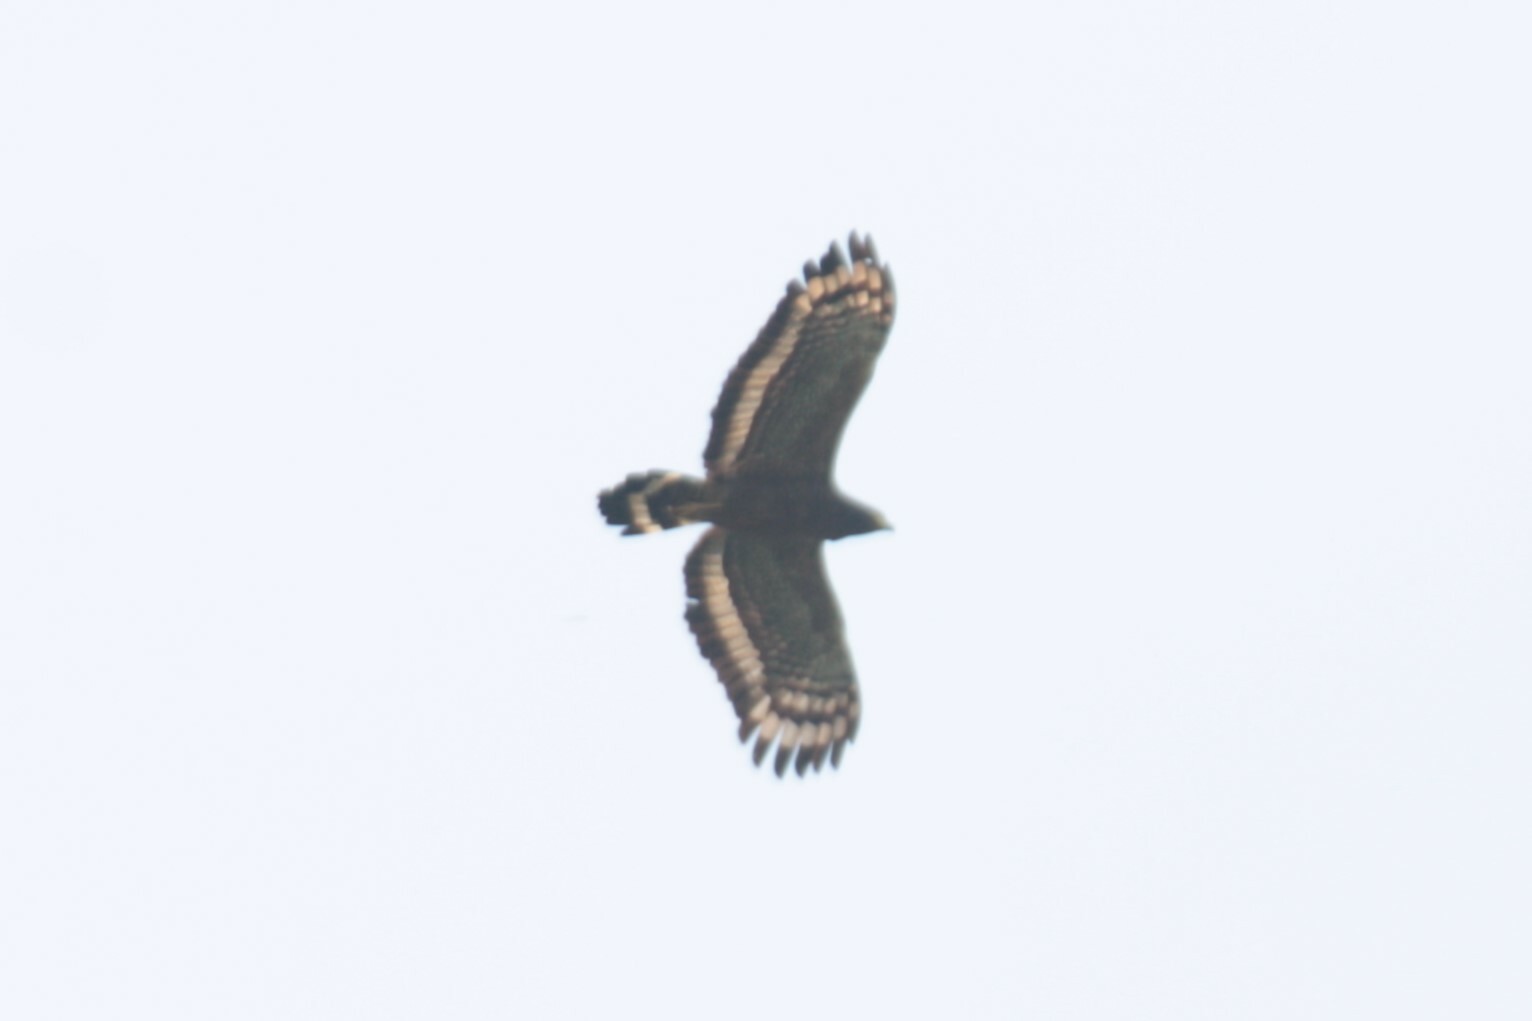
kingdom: Animalia
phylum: Chordata
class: Aves
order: Accipitriformes
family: Accipitridae
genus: Spilornis
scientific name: Spilornis cheela
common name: Crested serpent eagle
